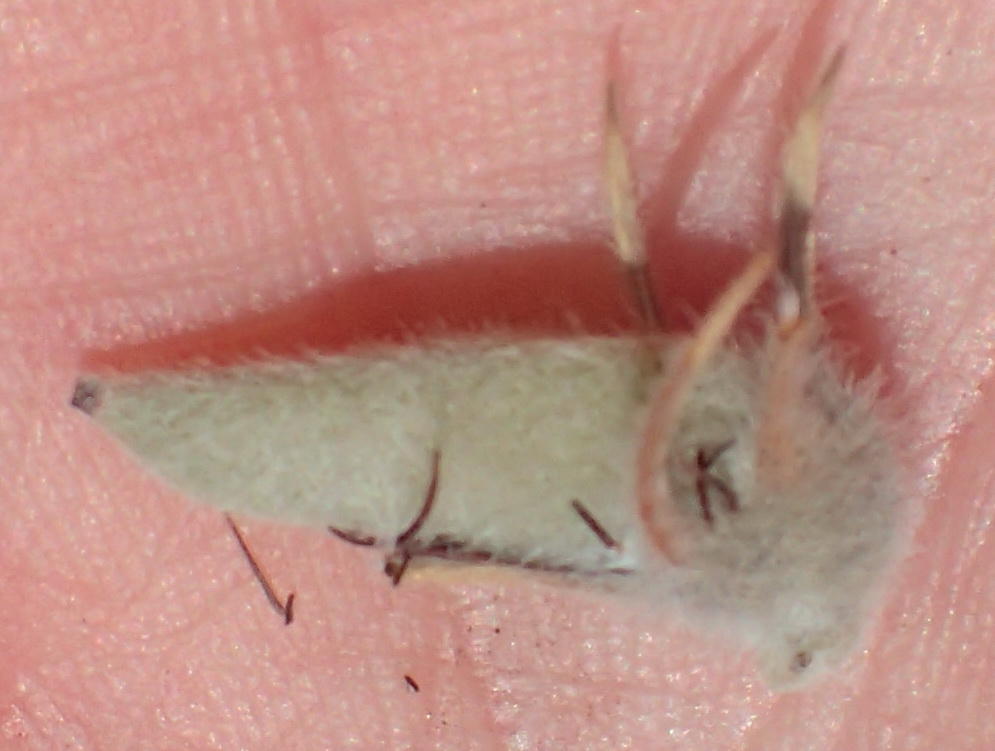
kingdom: Plantae
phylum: Tracheophyta
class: Magnoliopsida
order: Fabales
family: Fabaceae
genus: Aspalathus
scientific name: Aspalathus acanthes
